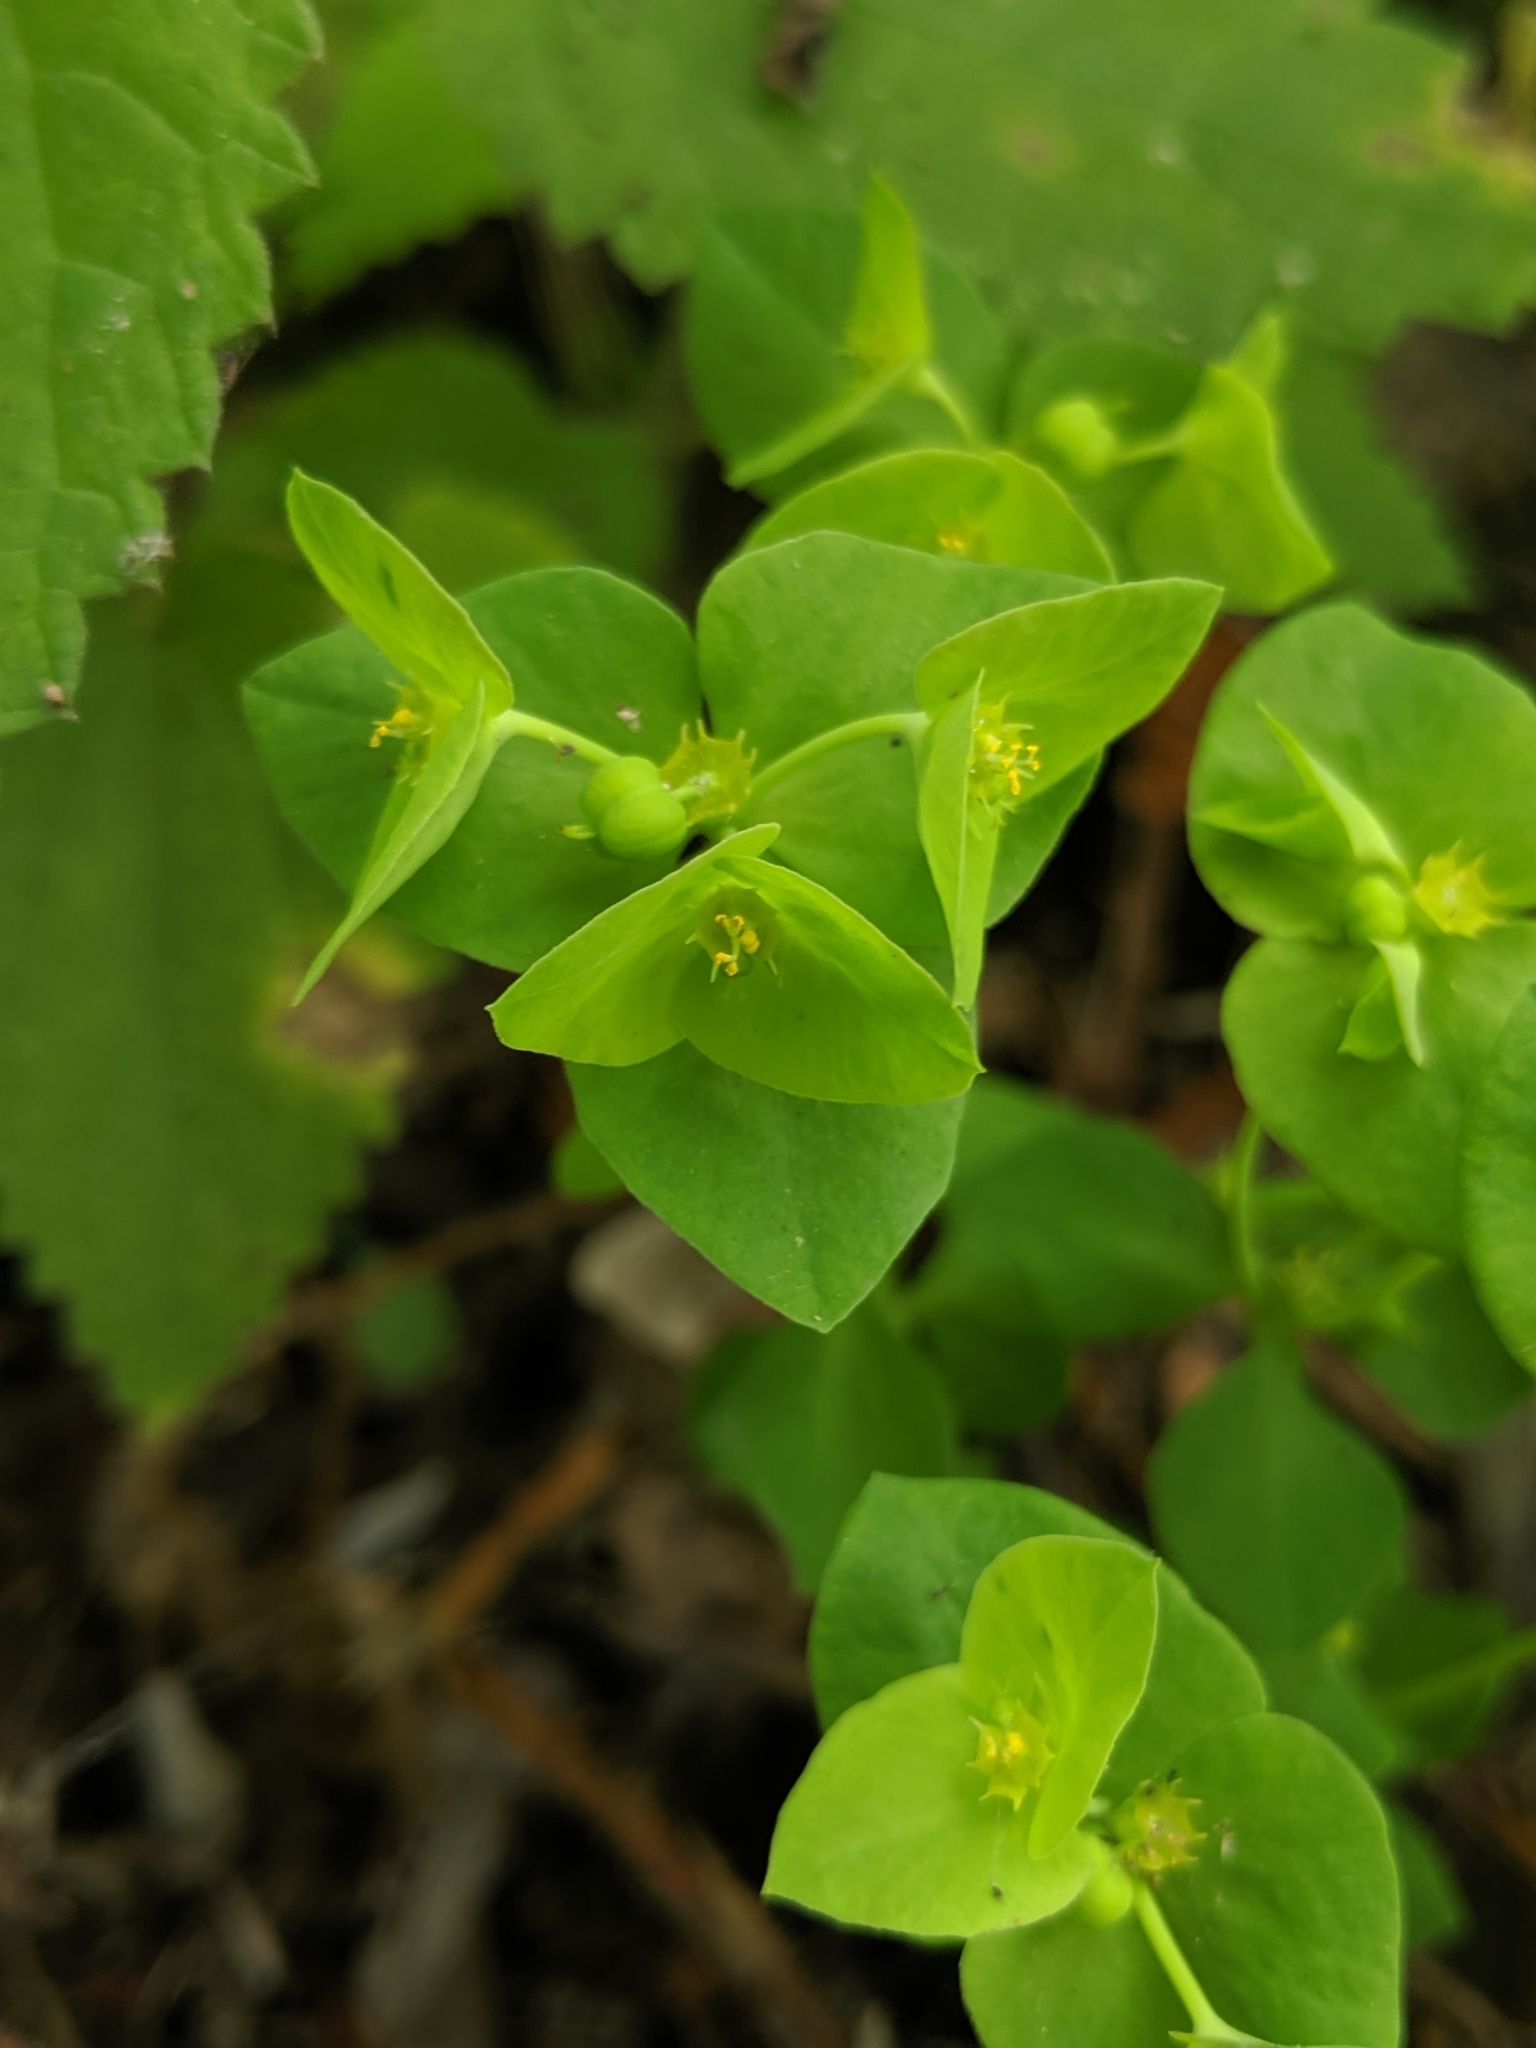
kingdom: Plantae
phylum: Tracheophyta
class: Magnoliopsida
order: Malpighiales
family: Euphorbiaceae
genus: Euphorbia
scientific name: Euphorbia peplus
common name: Petty spurge
